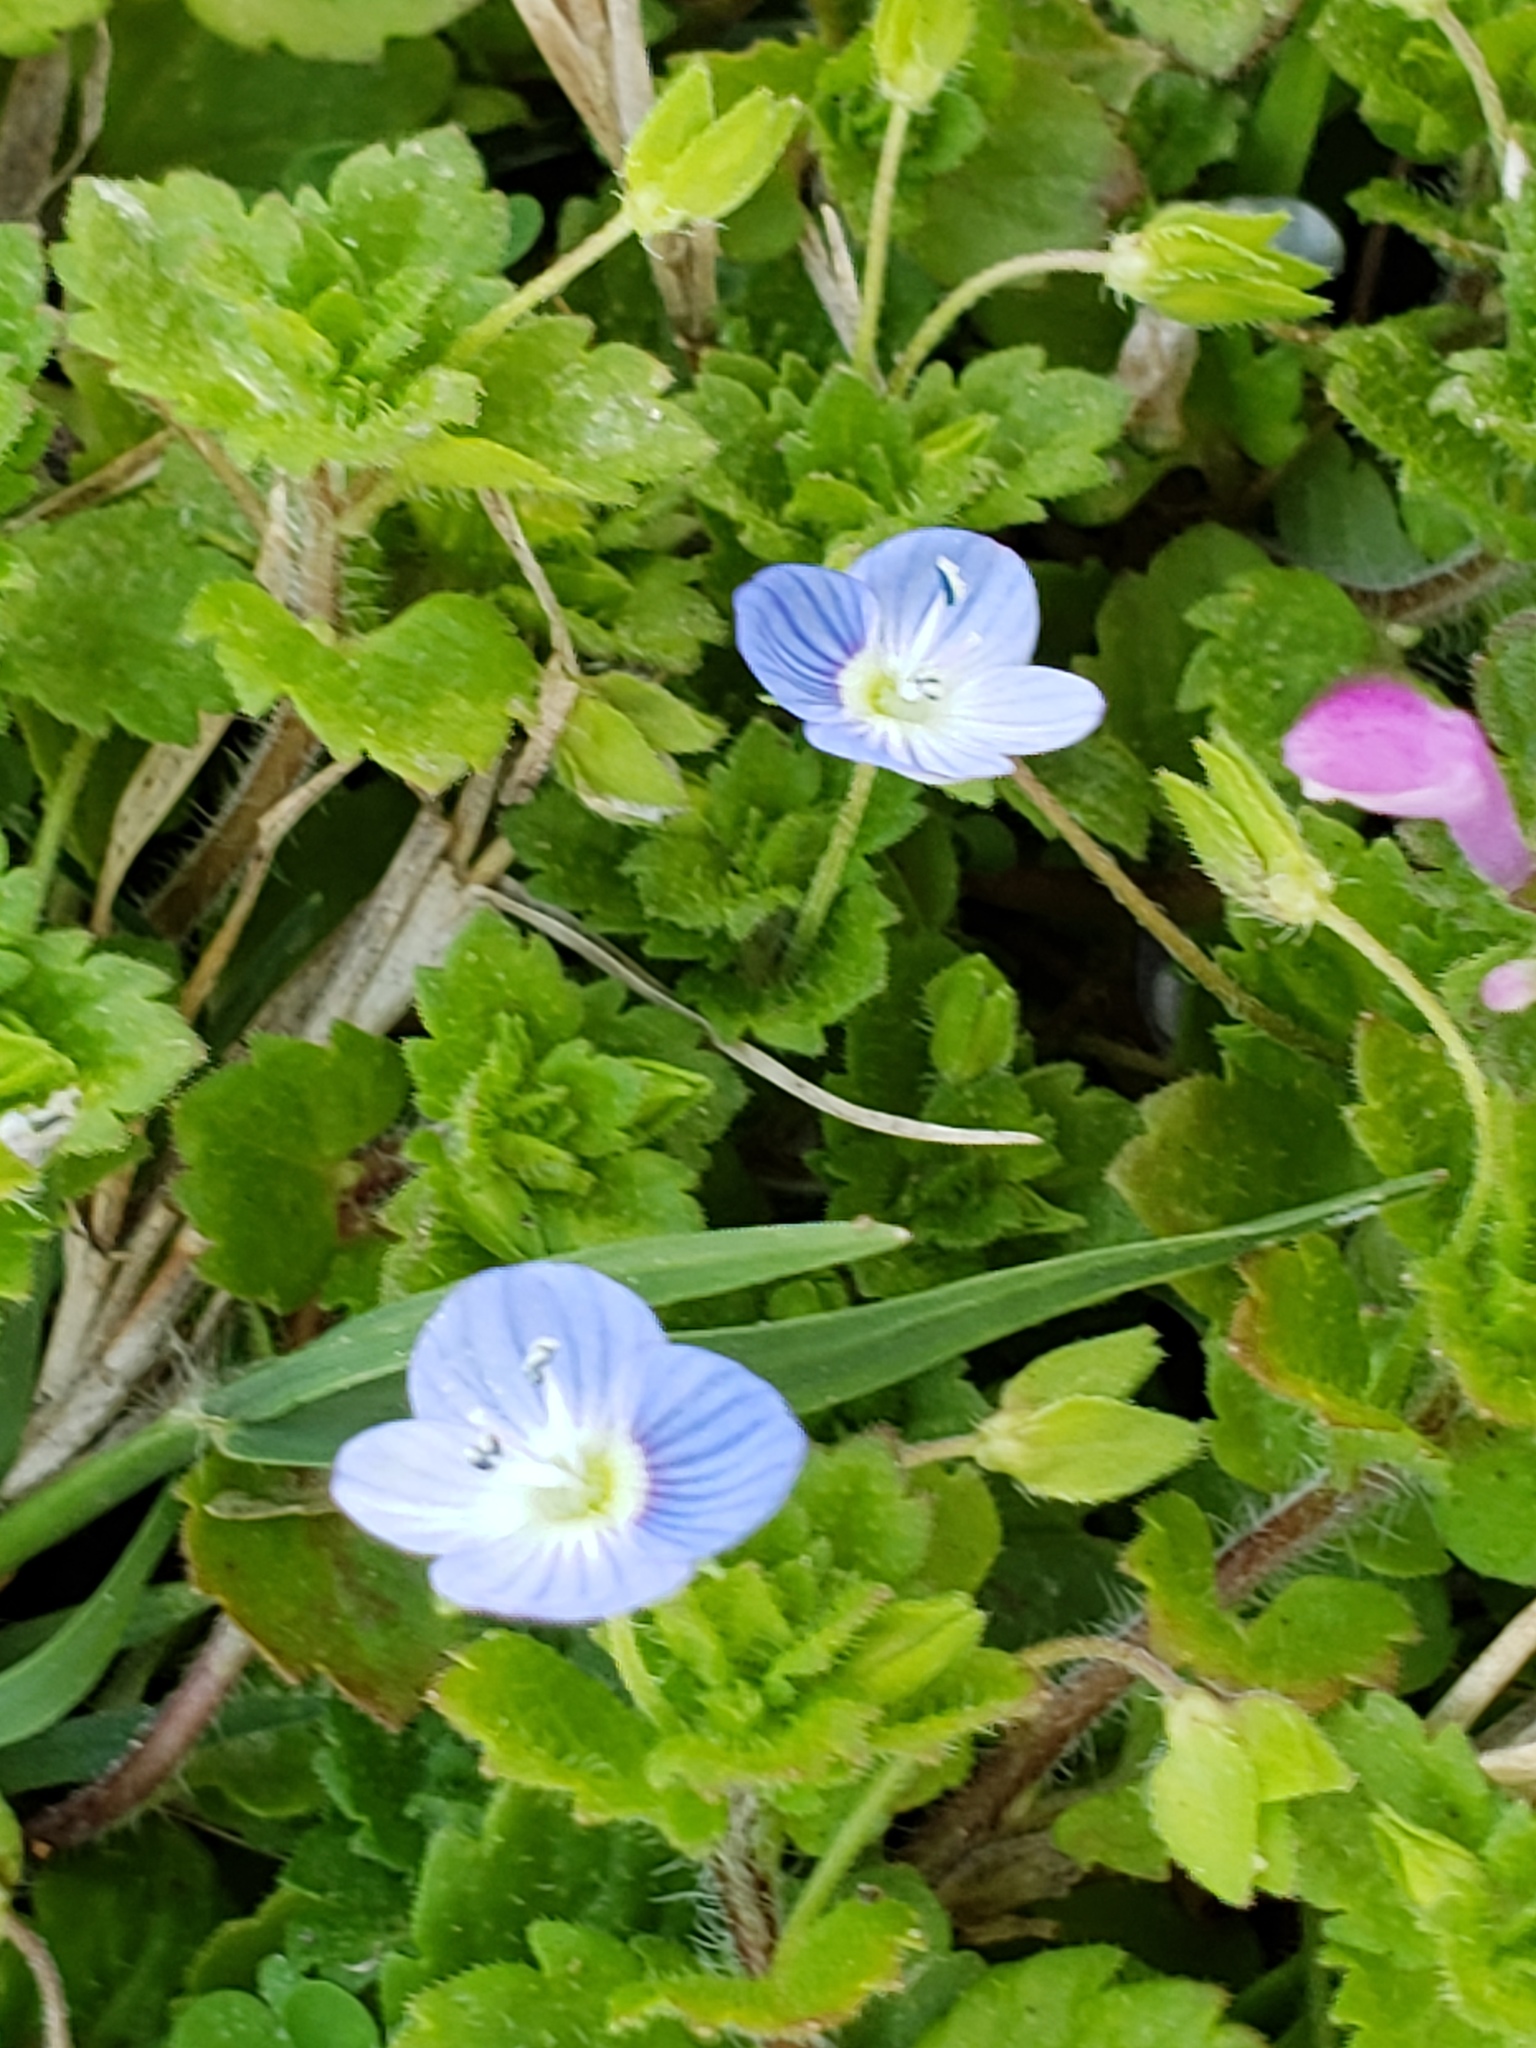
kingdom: Plantae
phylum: Tracheophyta
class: Magnoliopsida
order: Lamiales
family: Plantaginaceae
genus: Veronica
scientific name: Veronica persica
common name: Common field-speedwell
